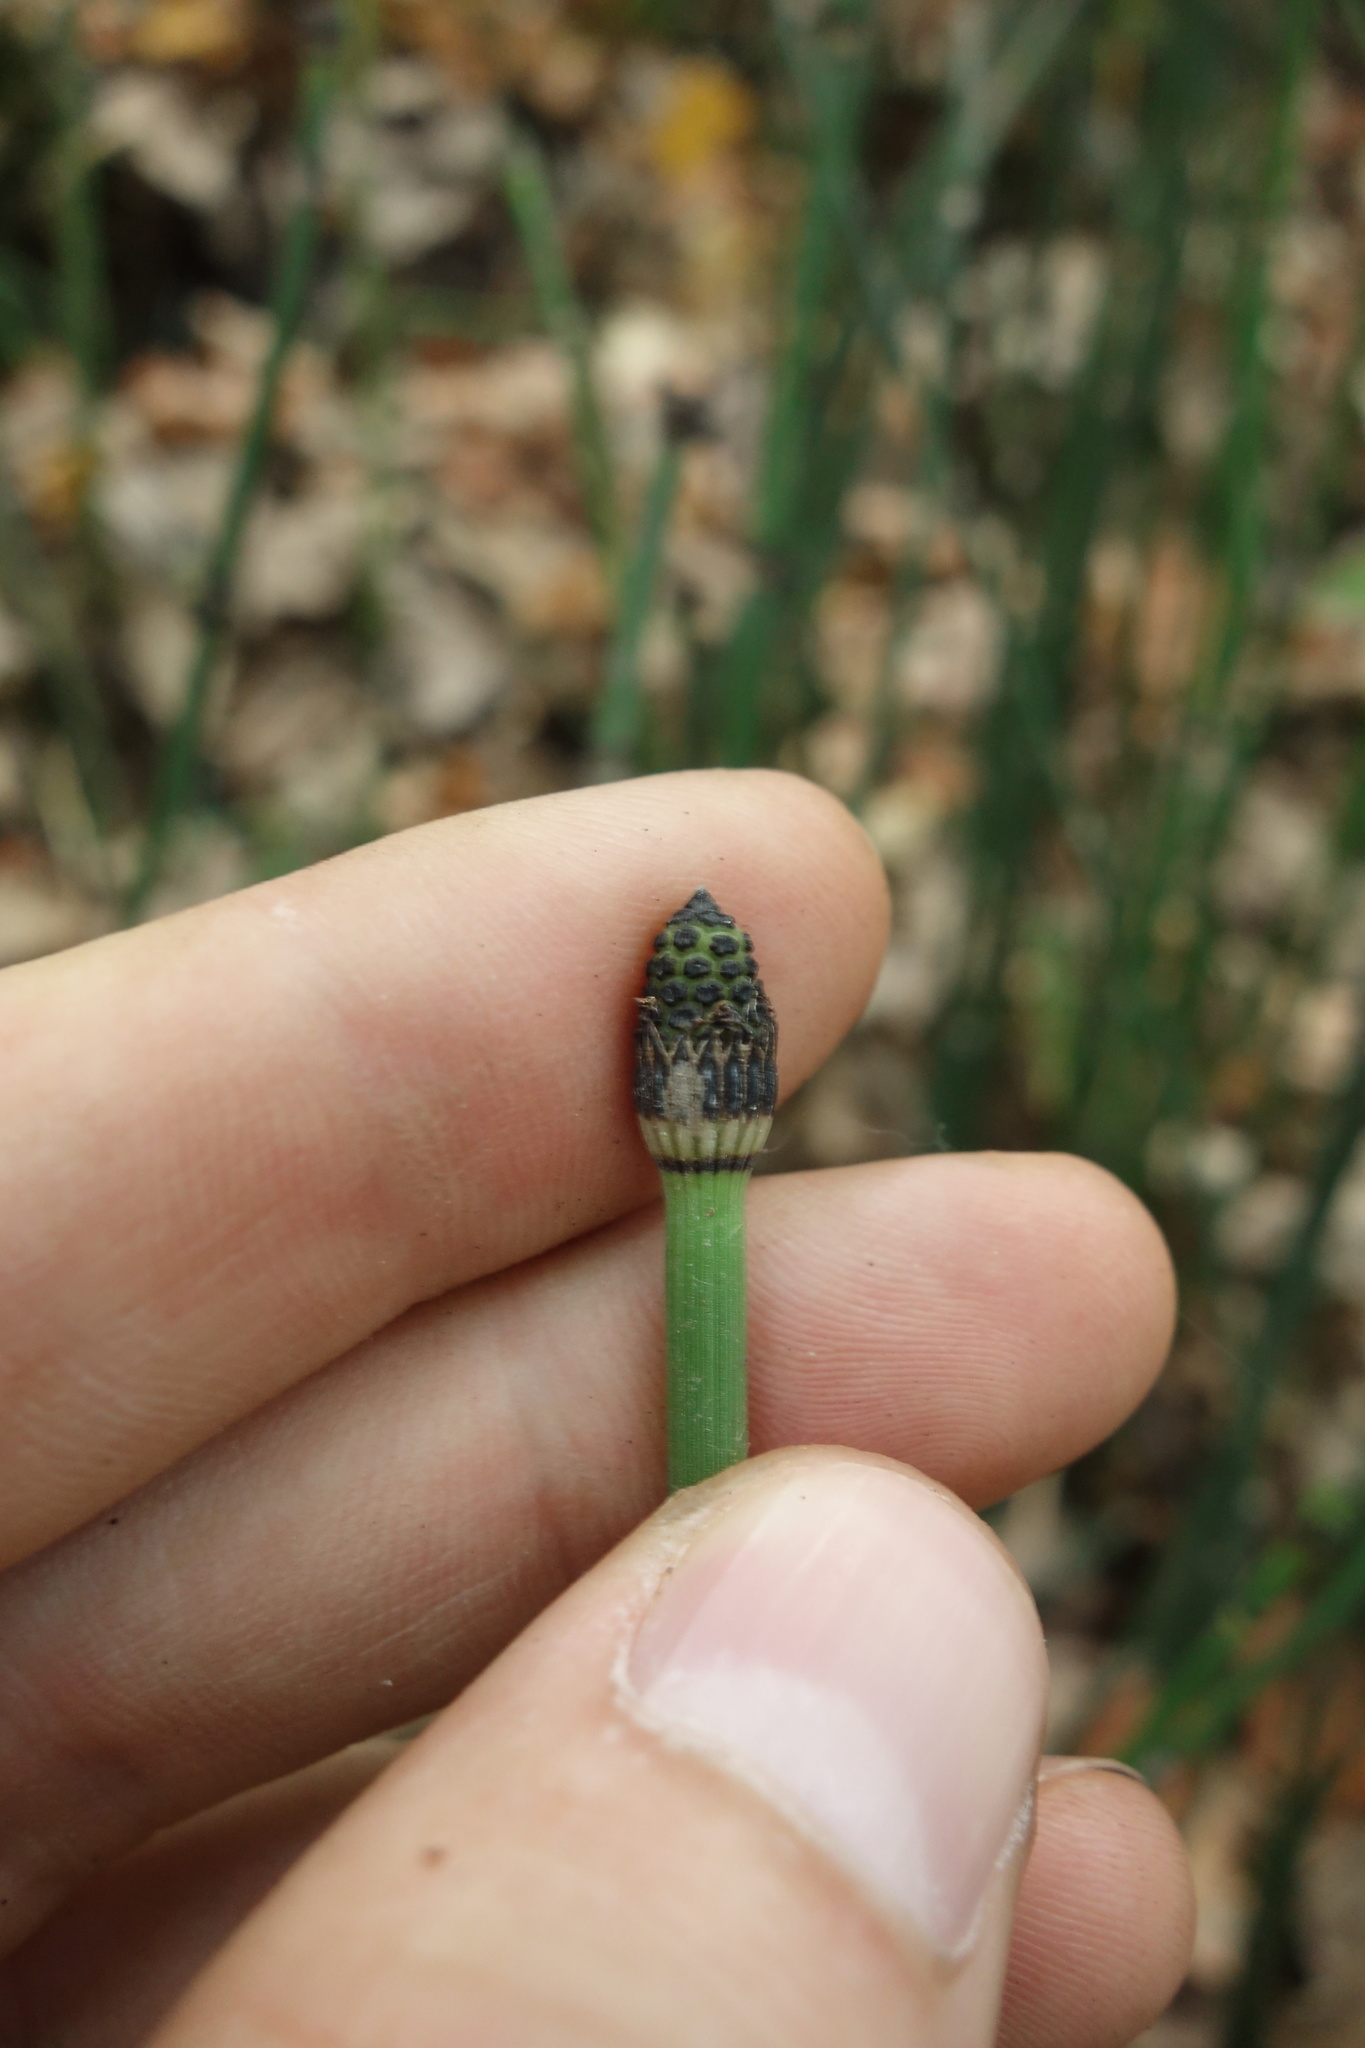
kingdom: Plantae
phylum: Tracheophyta
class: Polypodiopsida
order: Equisetales
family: Equisetaceae
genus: Equisetum
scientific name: Equisetum hyemale
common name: Rough horsetail
